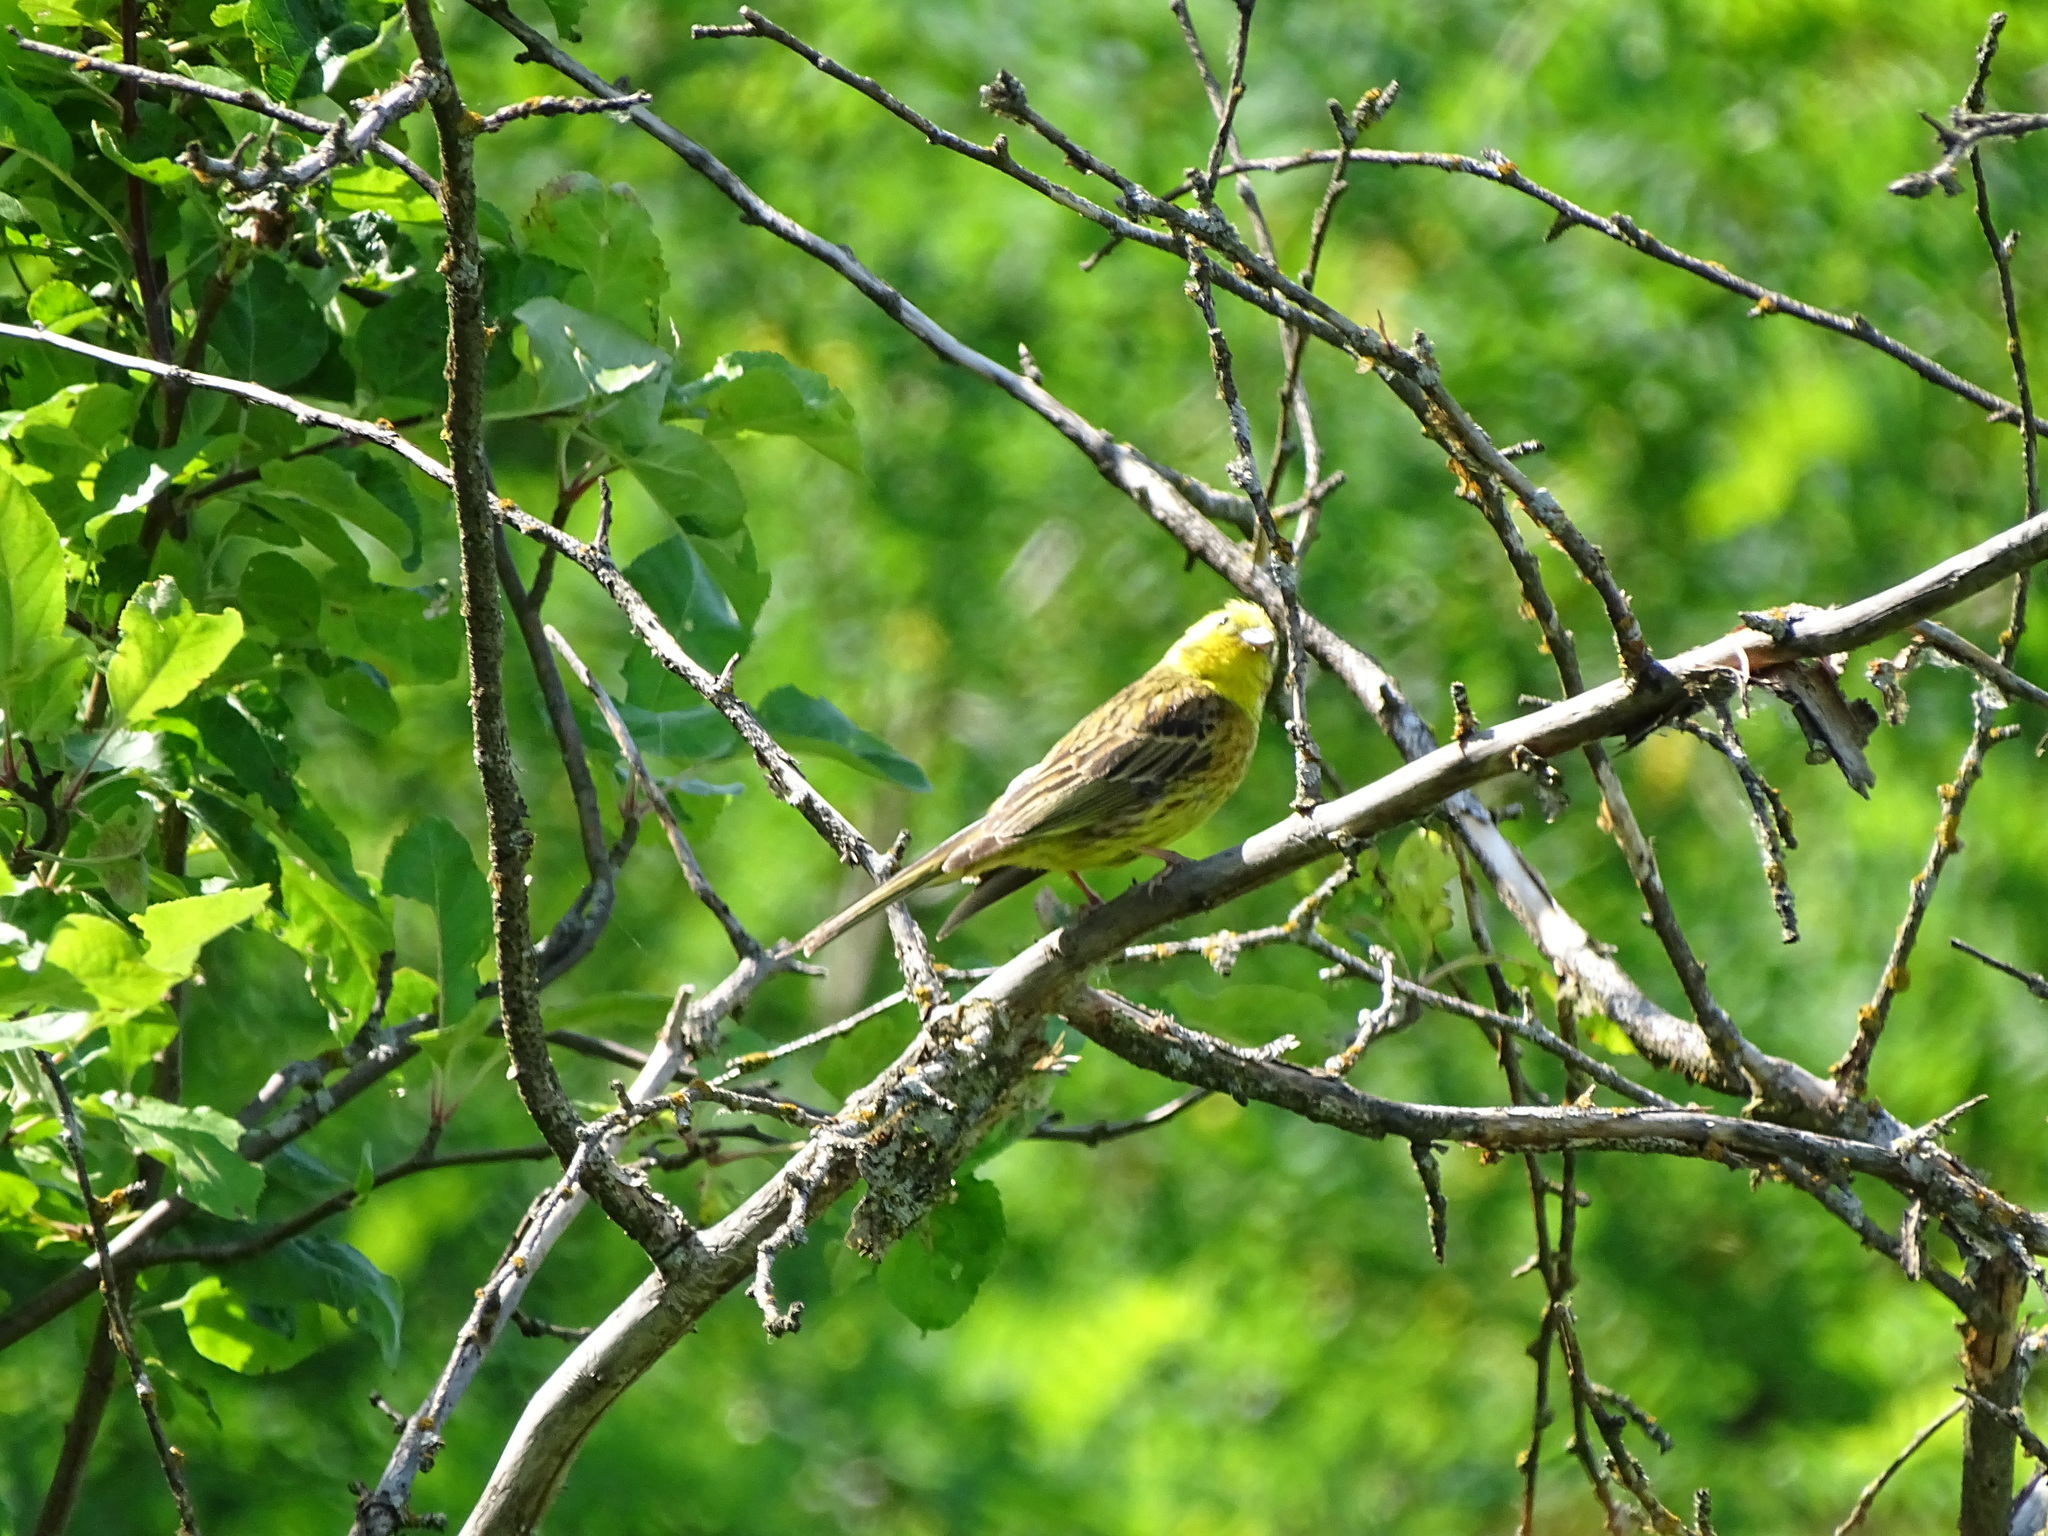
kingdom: Animalia
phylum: Chordata
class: Aves
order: Passeriformes
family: Emberizidae
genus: Emberiza
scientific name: Emberiza citrinella
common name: Yellowhammer
